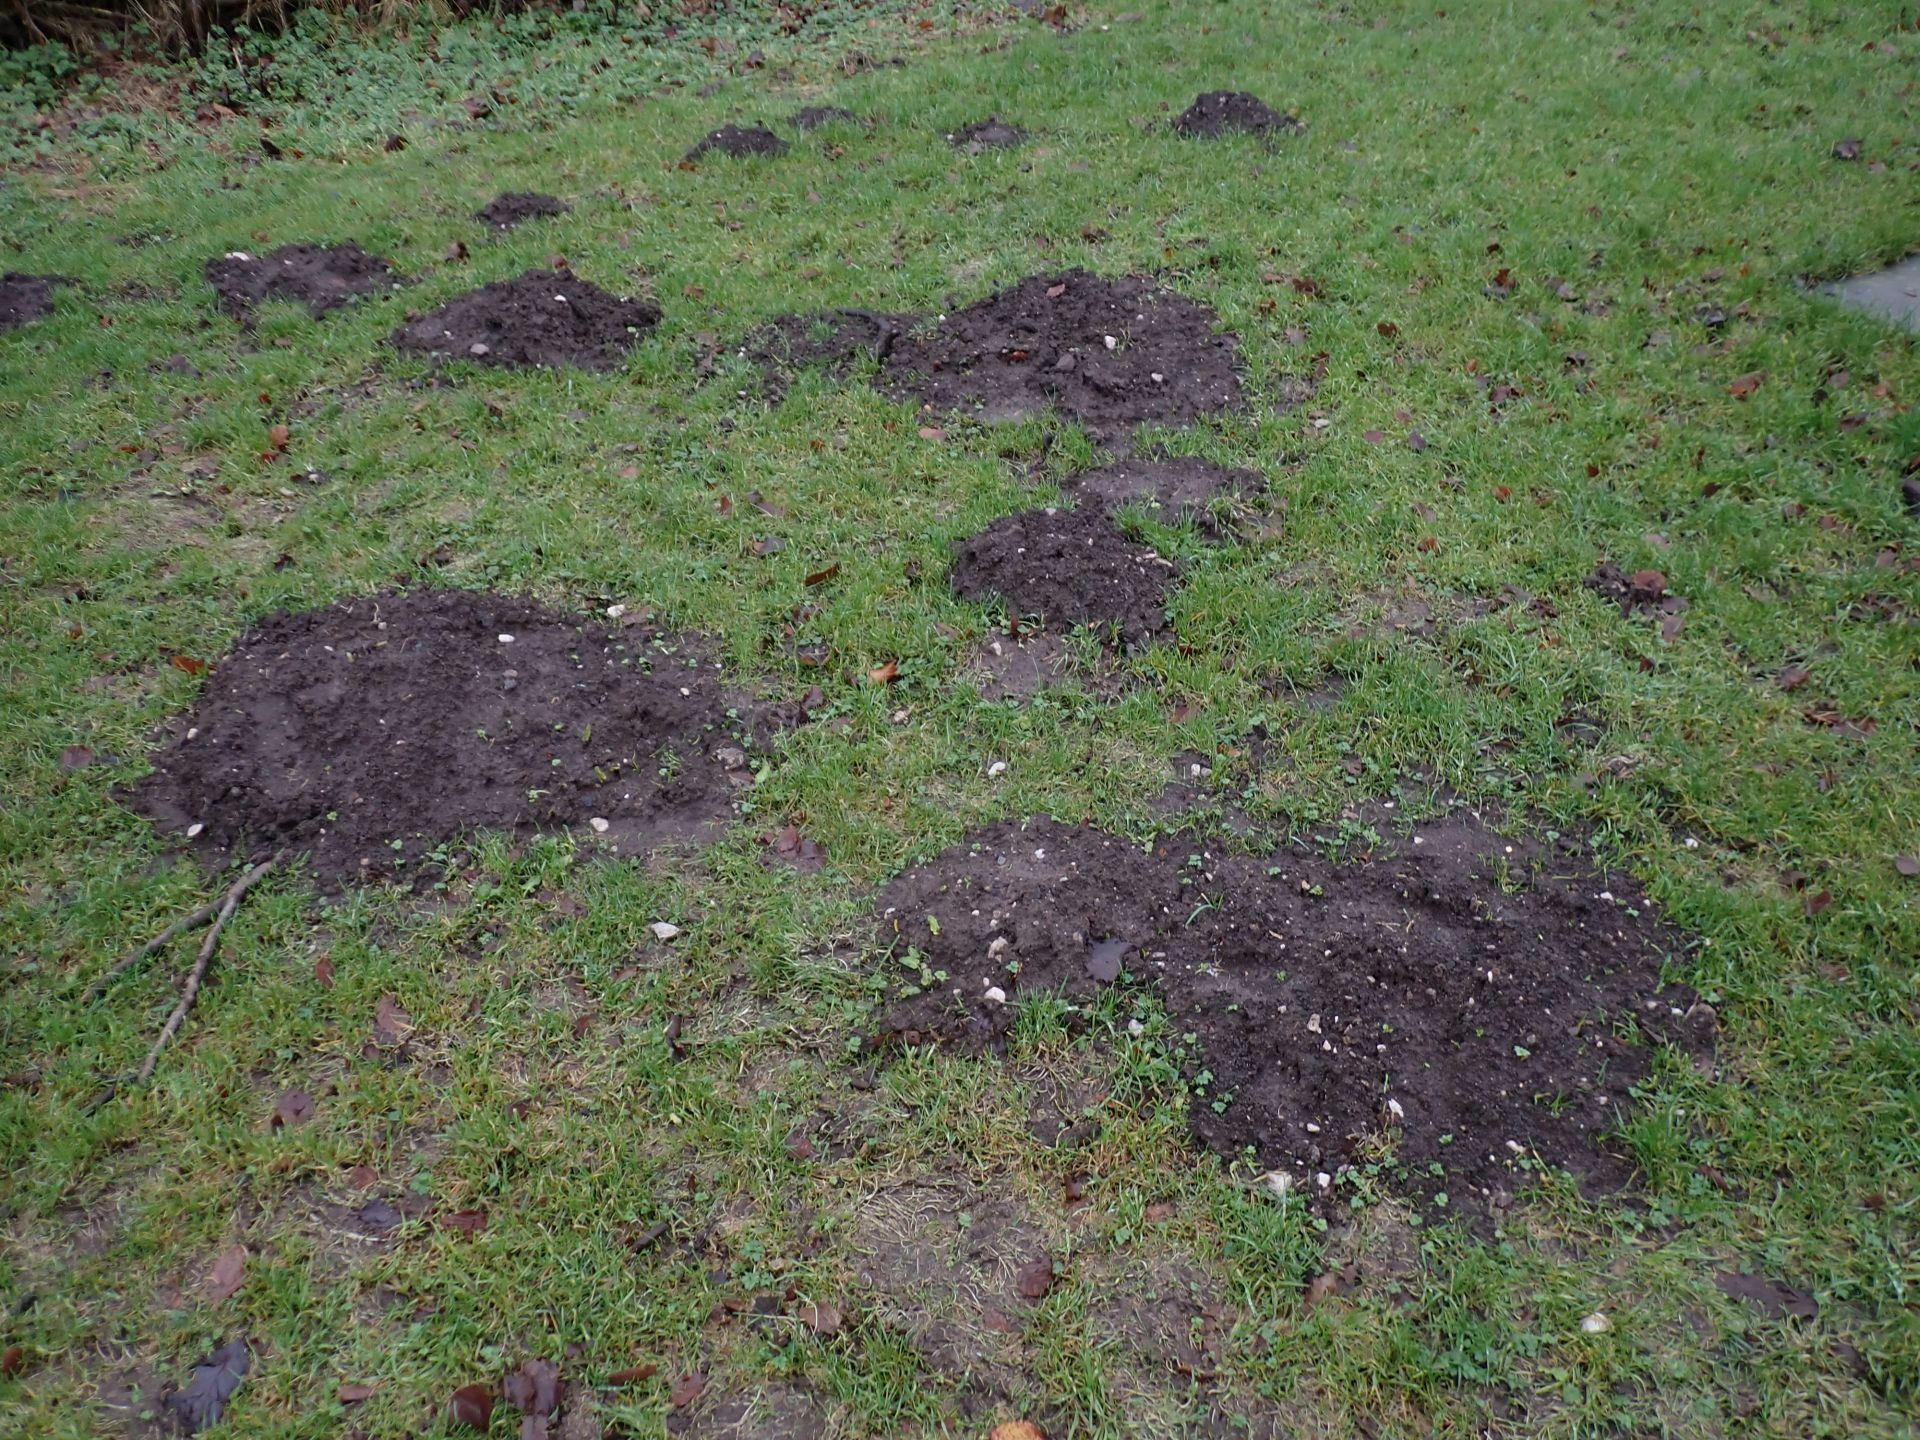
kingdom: Animalia
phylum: Chordata
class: Mammalia
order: Soricomorpha
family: Talpidae
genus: Talpa
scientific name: Talpa europaea
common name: European mole
